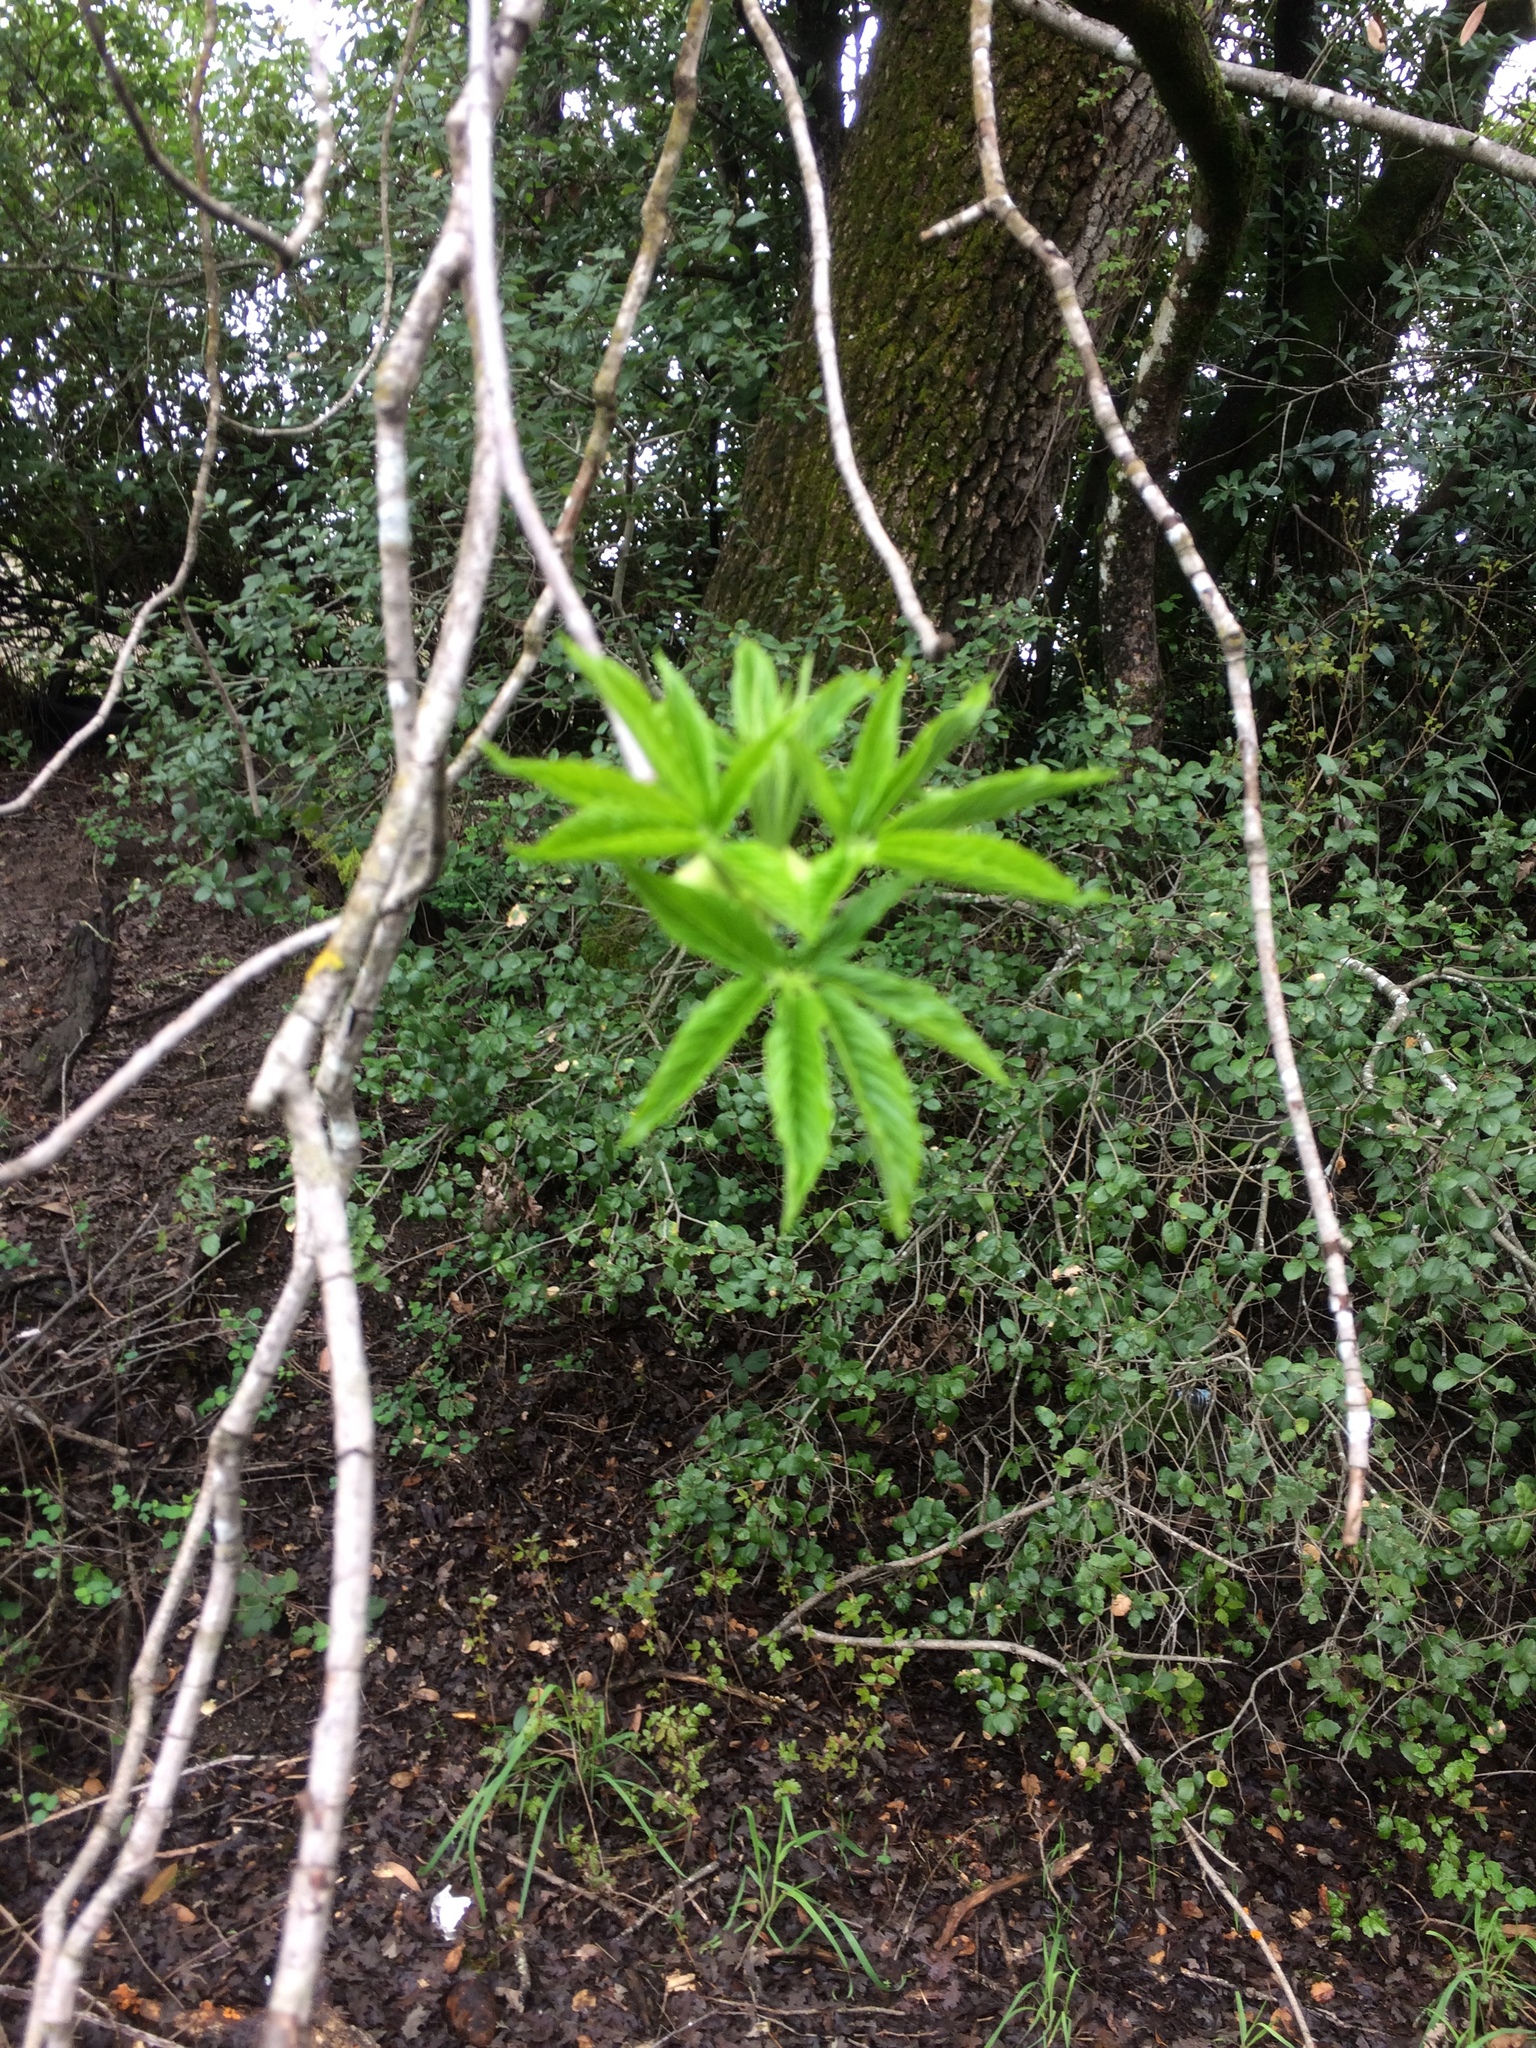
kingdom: Plantae
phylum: Tracheophyta
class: Magnoliopsida
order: Sapindales
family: Sapindaceae
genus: Aesculus
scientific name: Aesculus californica
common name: California buckeye
